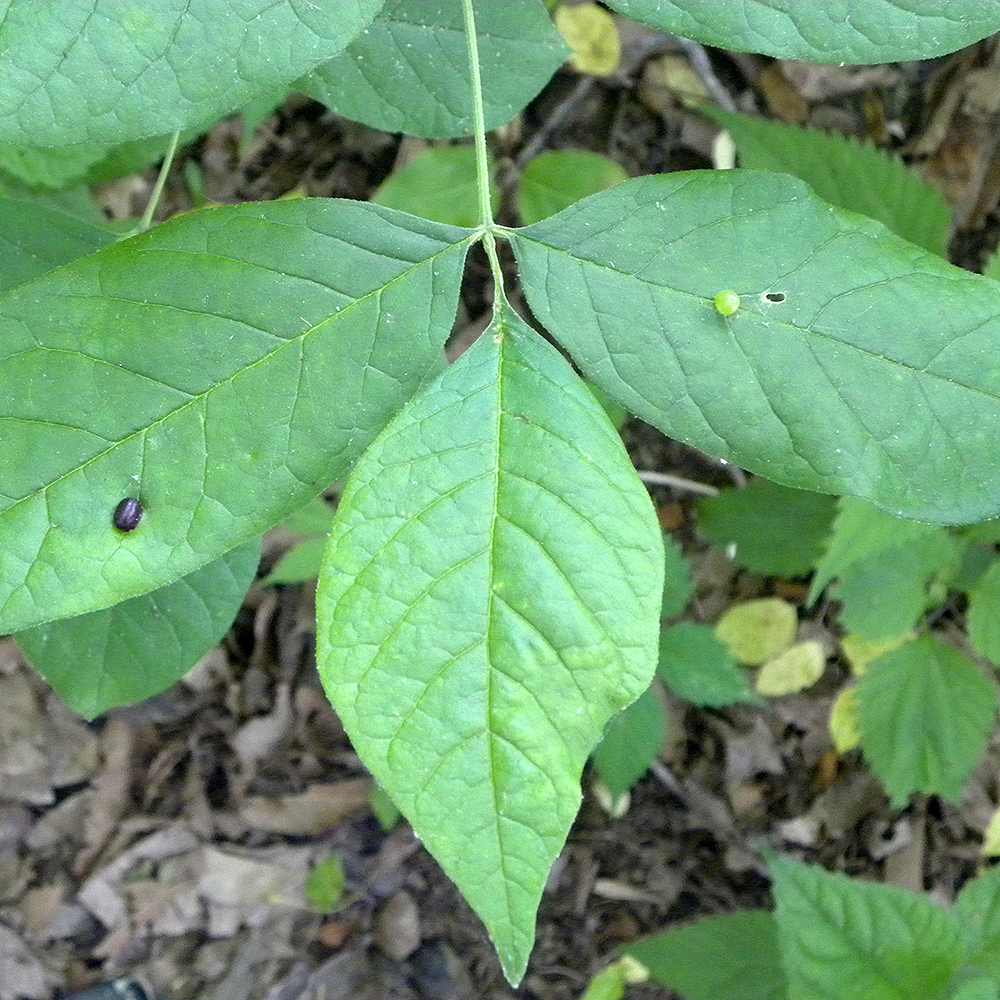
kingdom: Animalia
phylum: Arthropoda
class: Insecta
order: Diptera
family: Cecidomyiidae
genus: Dasineura
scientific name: Dasineura pellex
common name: Ash bullet gall midge
